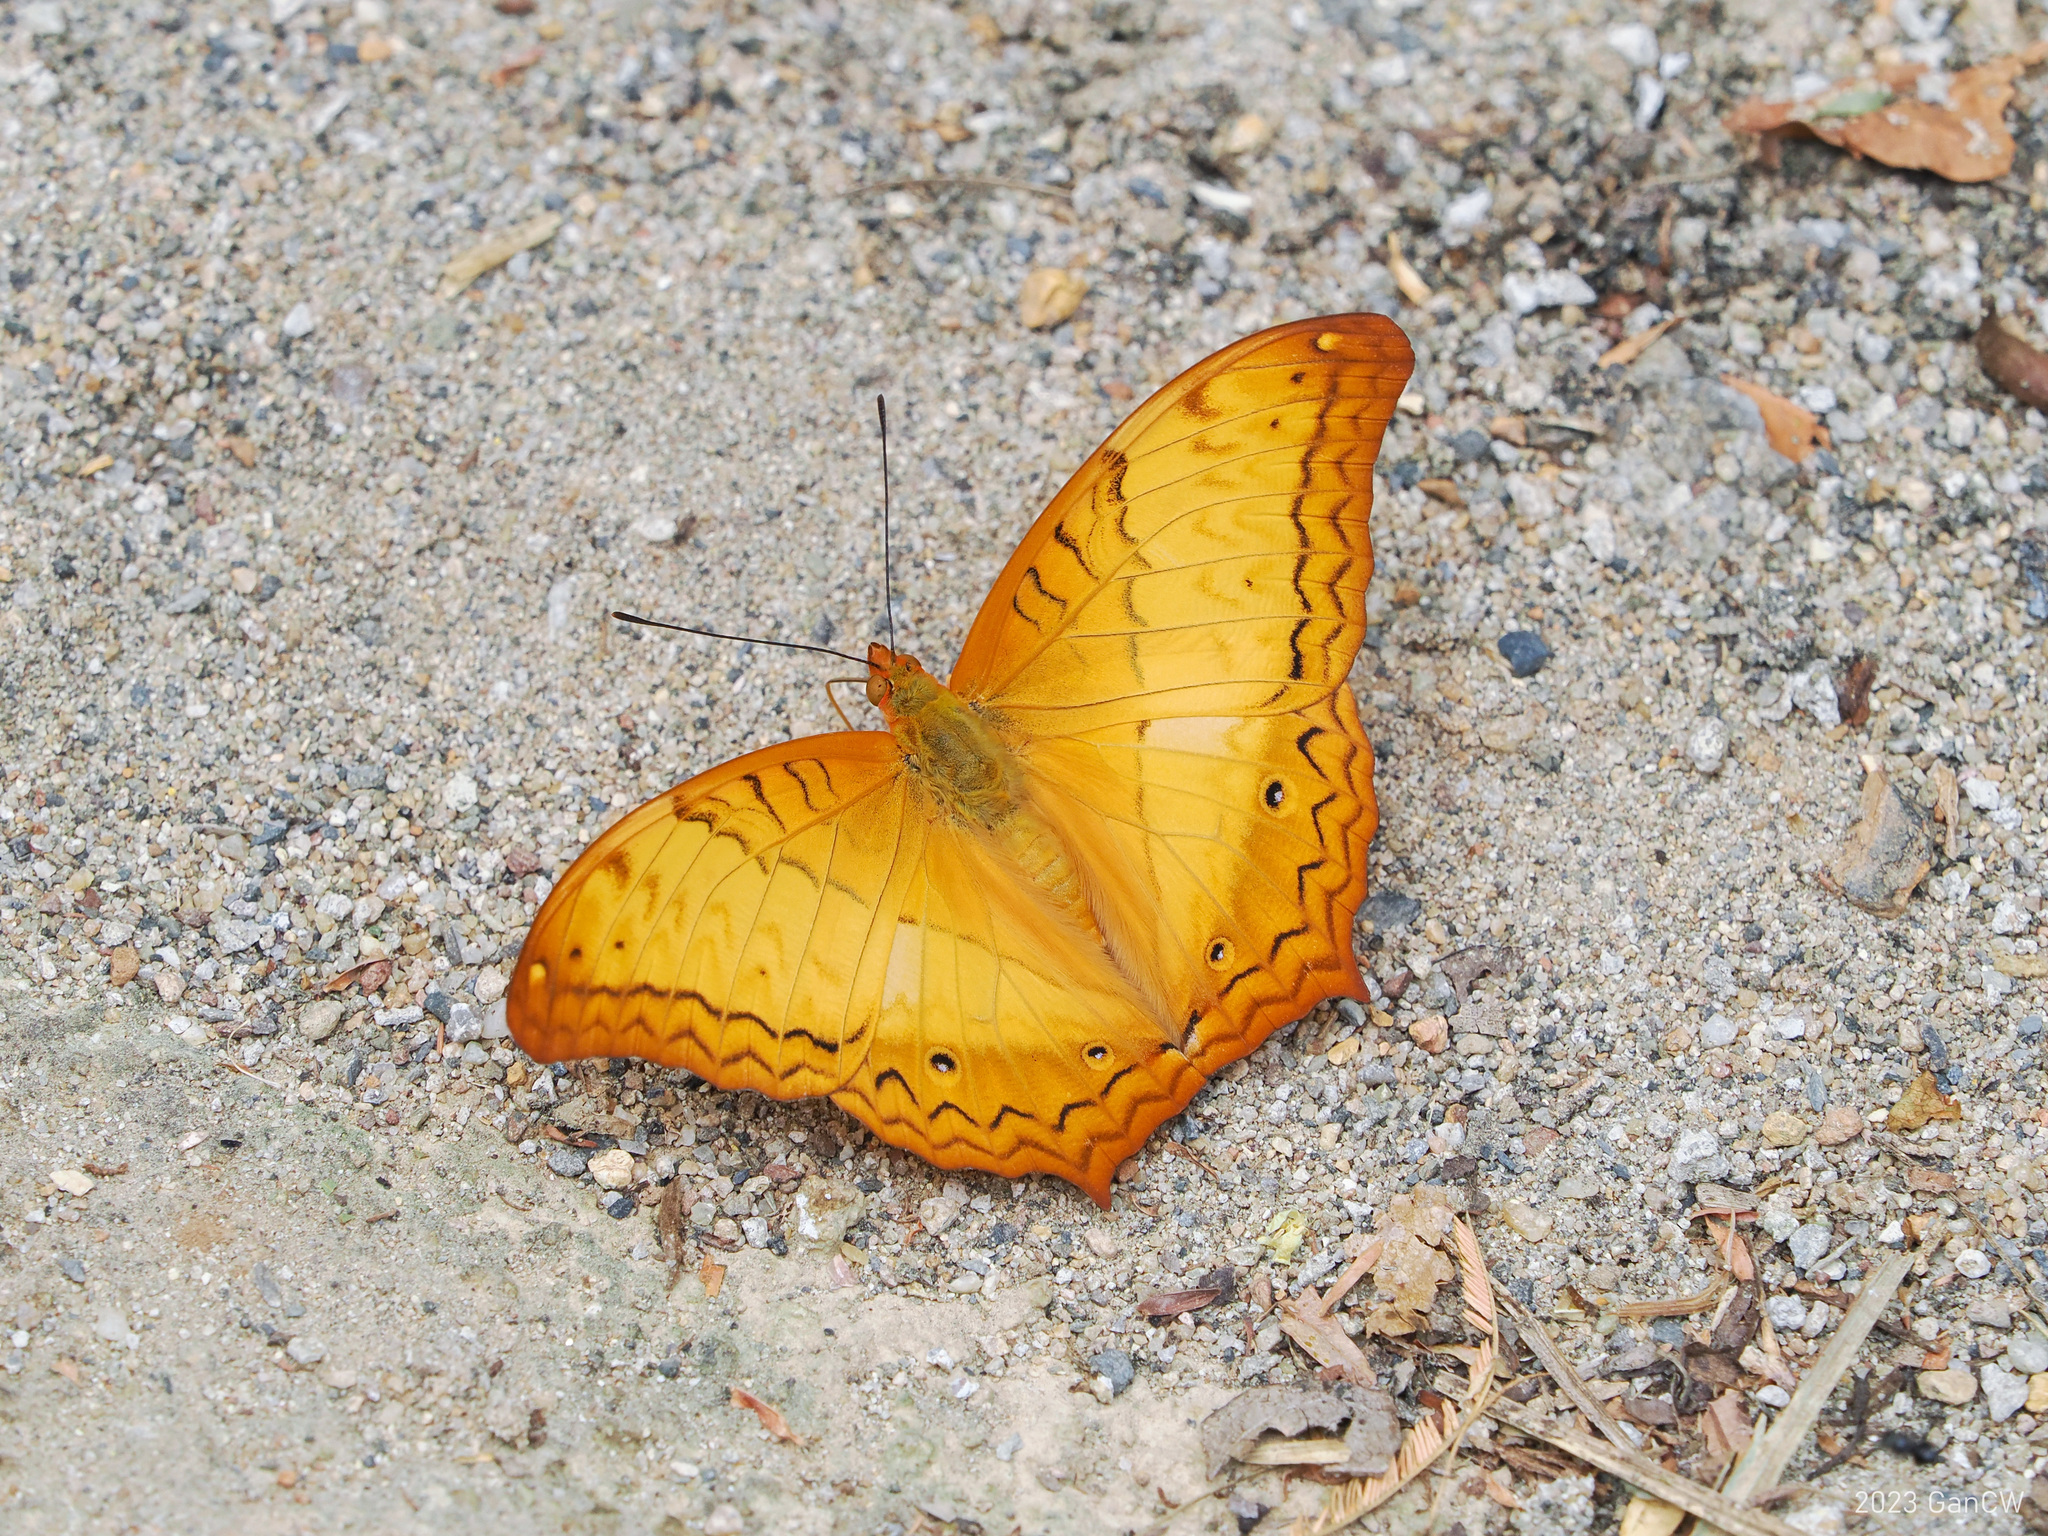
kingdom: Animalia
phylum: Arthropoda
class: Insecta
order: Lepidoptera
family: Nymphalidae
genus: Vindula
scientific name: Vindula erota
